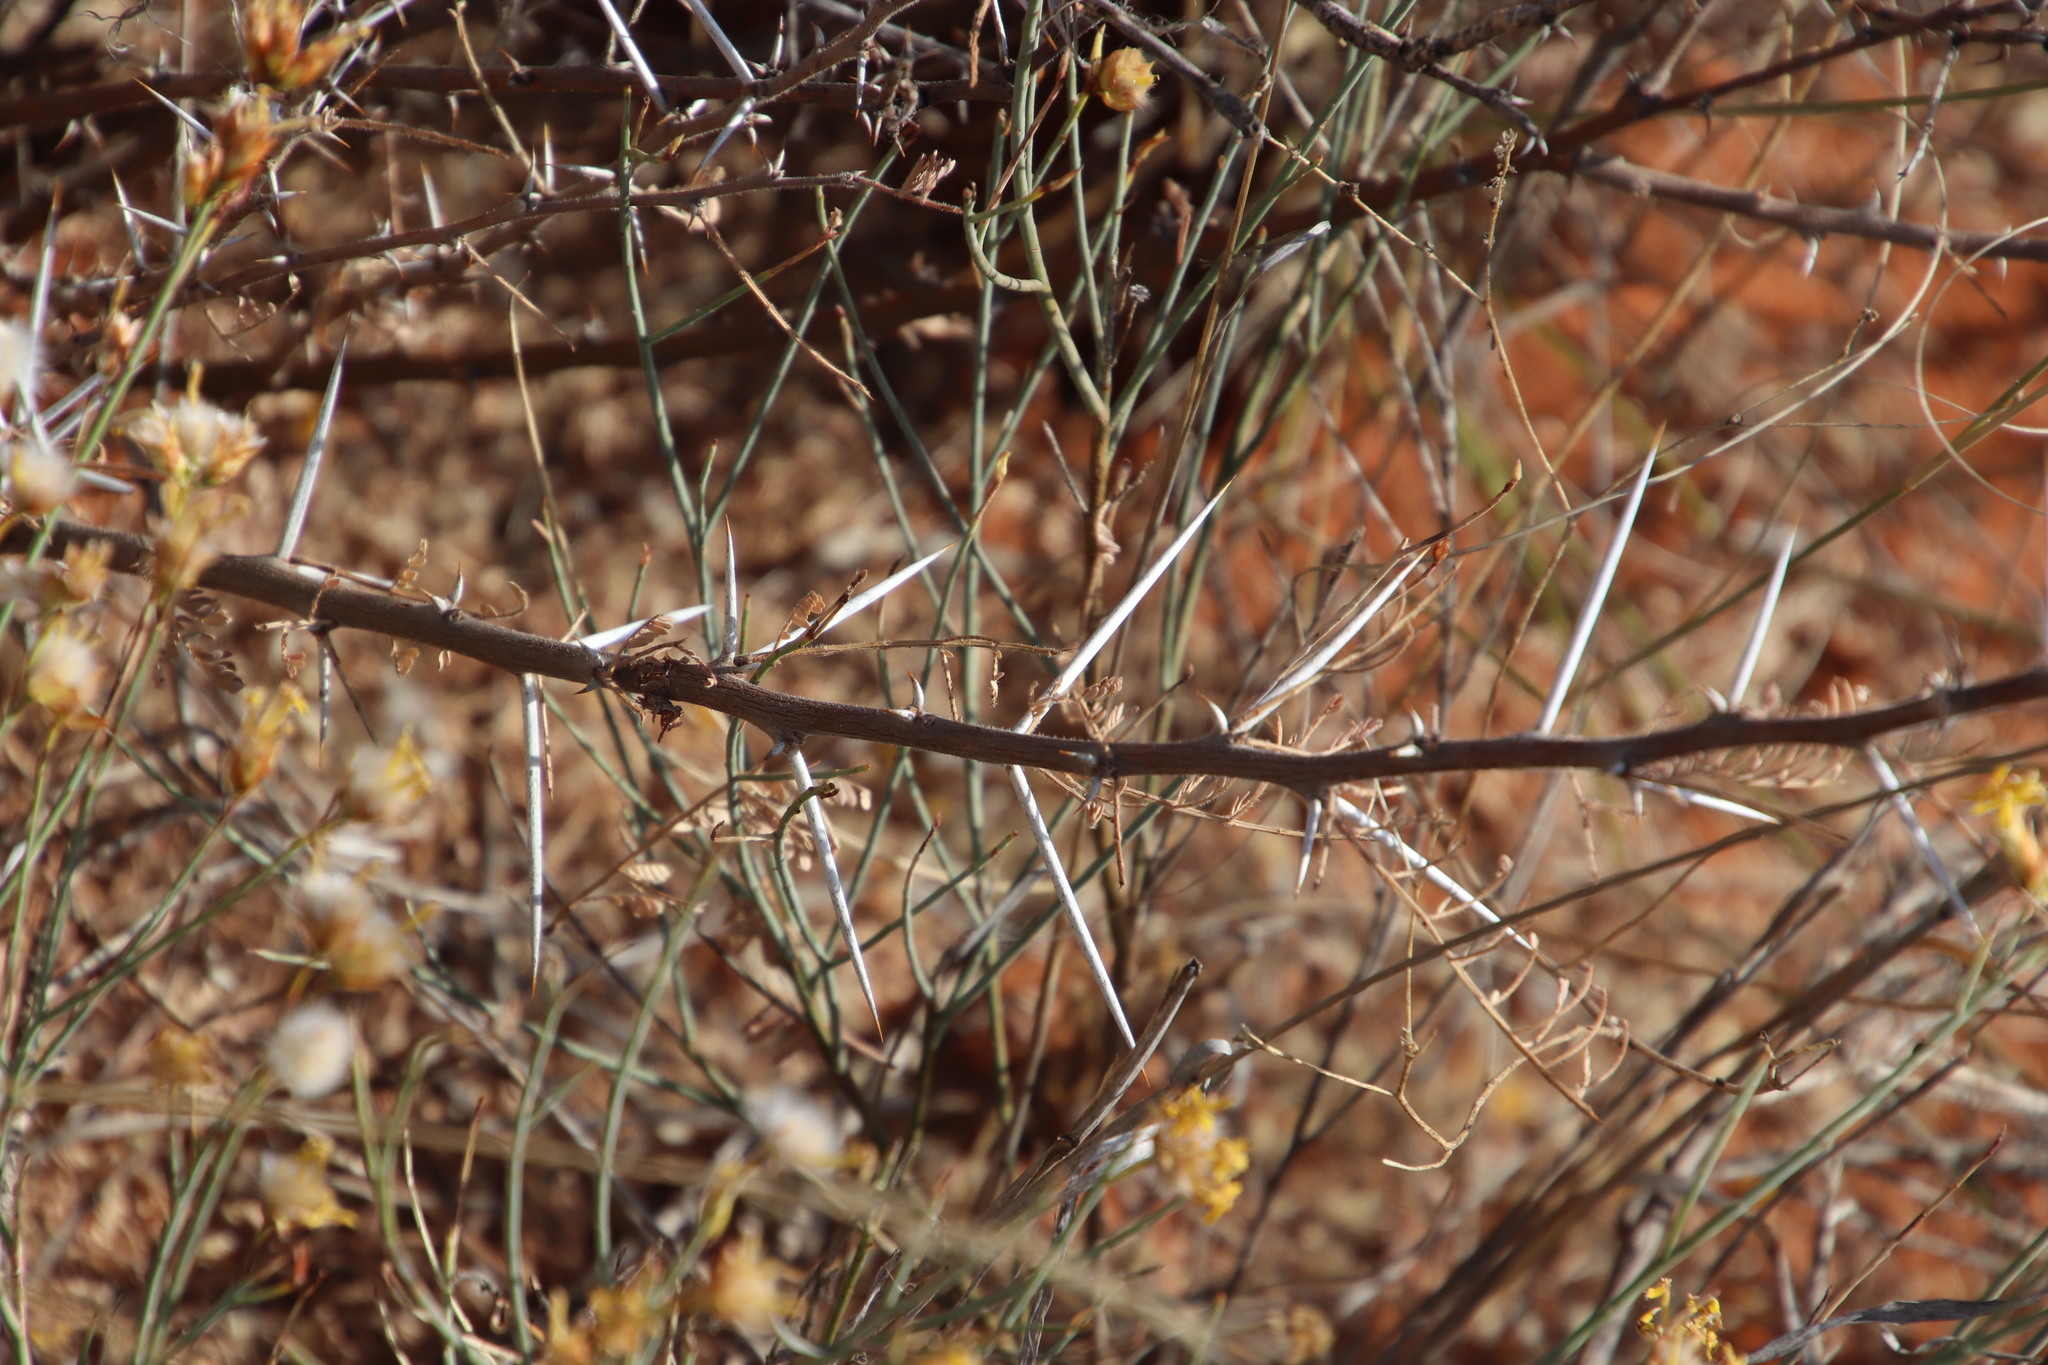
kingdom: Plantae
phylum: Tracheophyta
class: Magnoliopsida
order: Fabales
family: Fabaceae
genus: Vachellia
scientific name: Vachellia tortilis
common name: Umbrella thorn acacia
